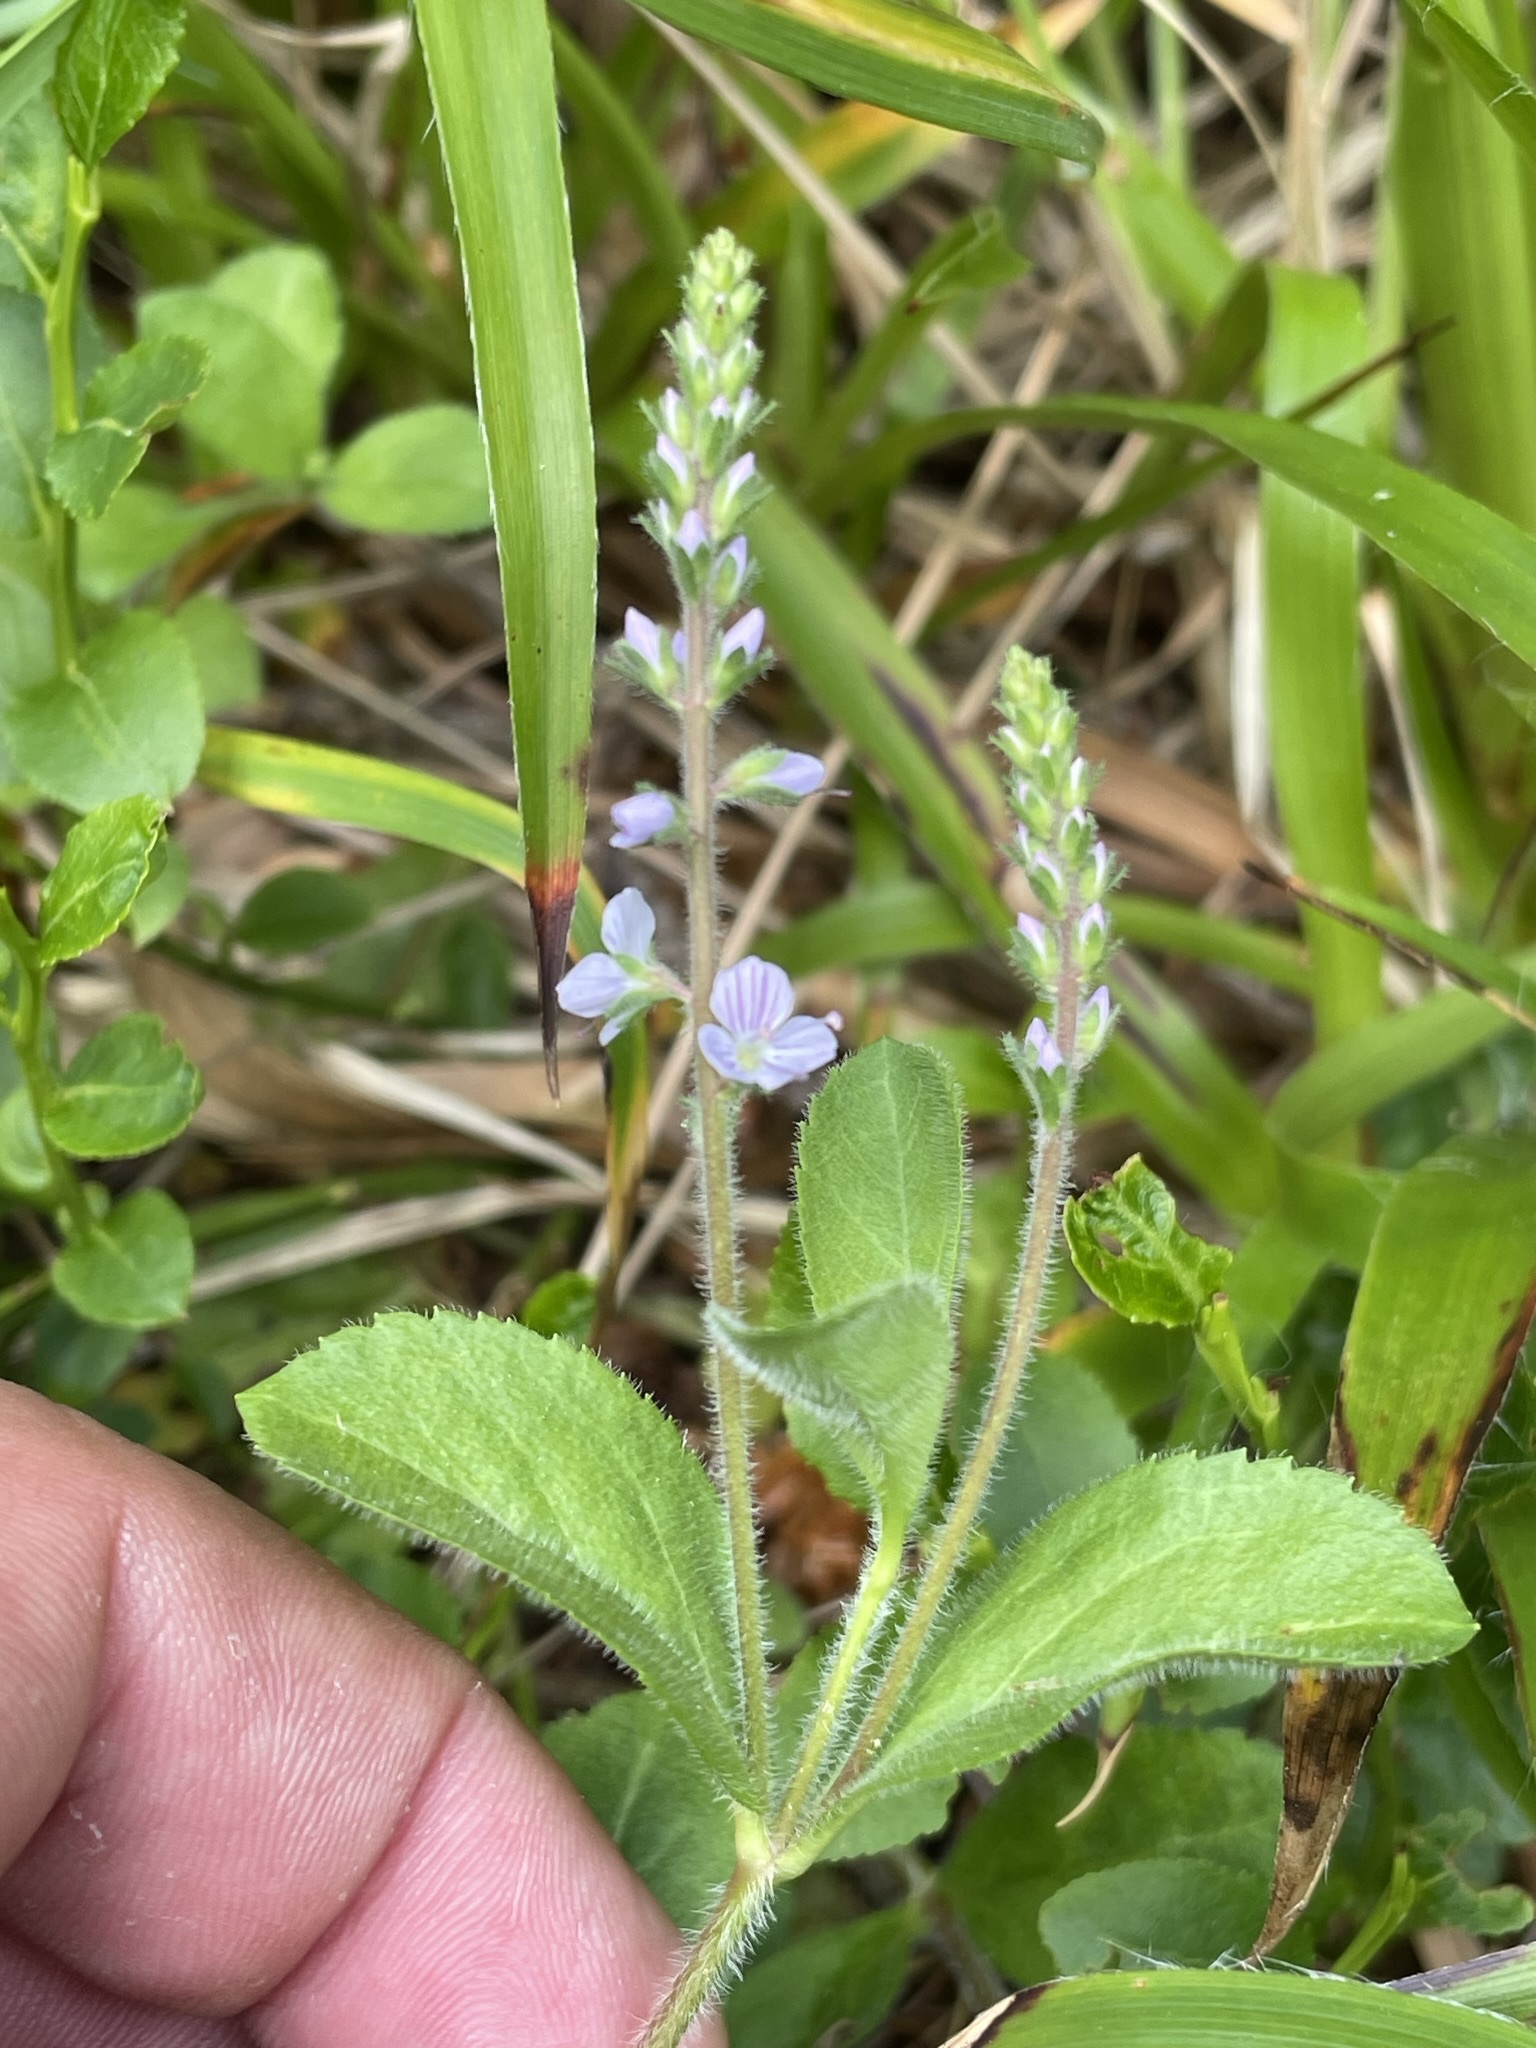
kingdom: Plantae
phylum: Tracheophyta
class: Magnoliopsida
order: Lamiales
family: Plantaginaceae
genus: Veronica
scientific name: Veronica officinalis
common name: Common speedwell
